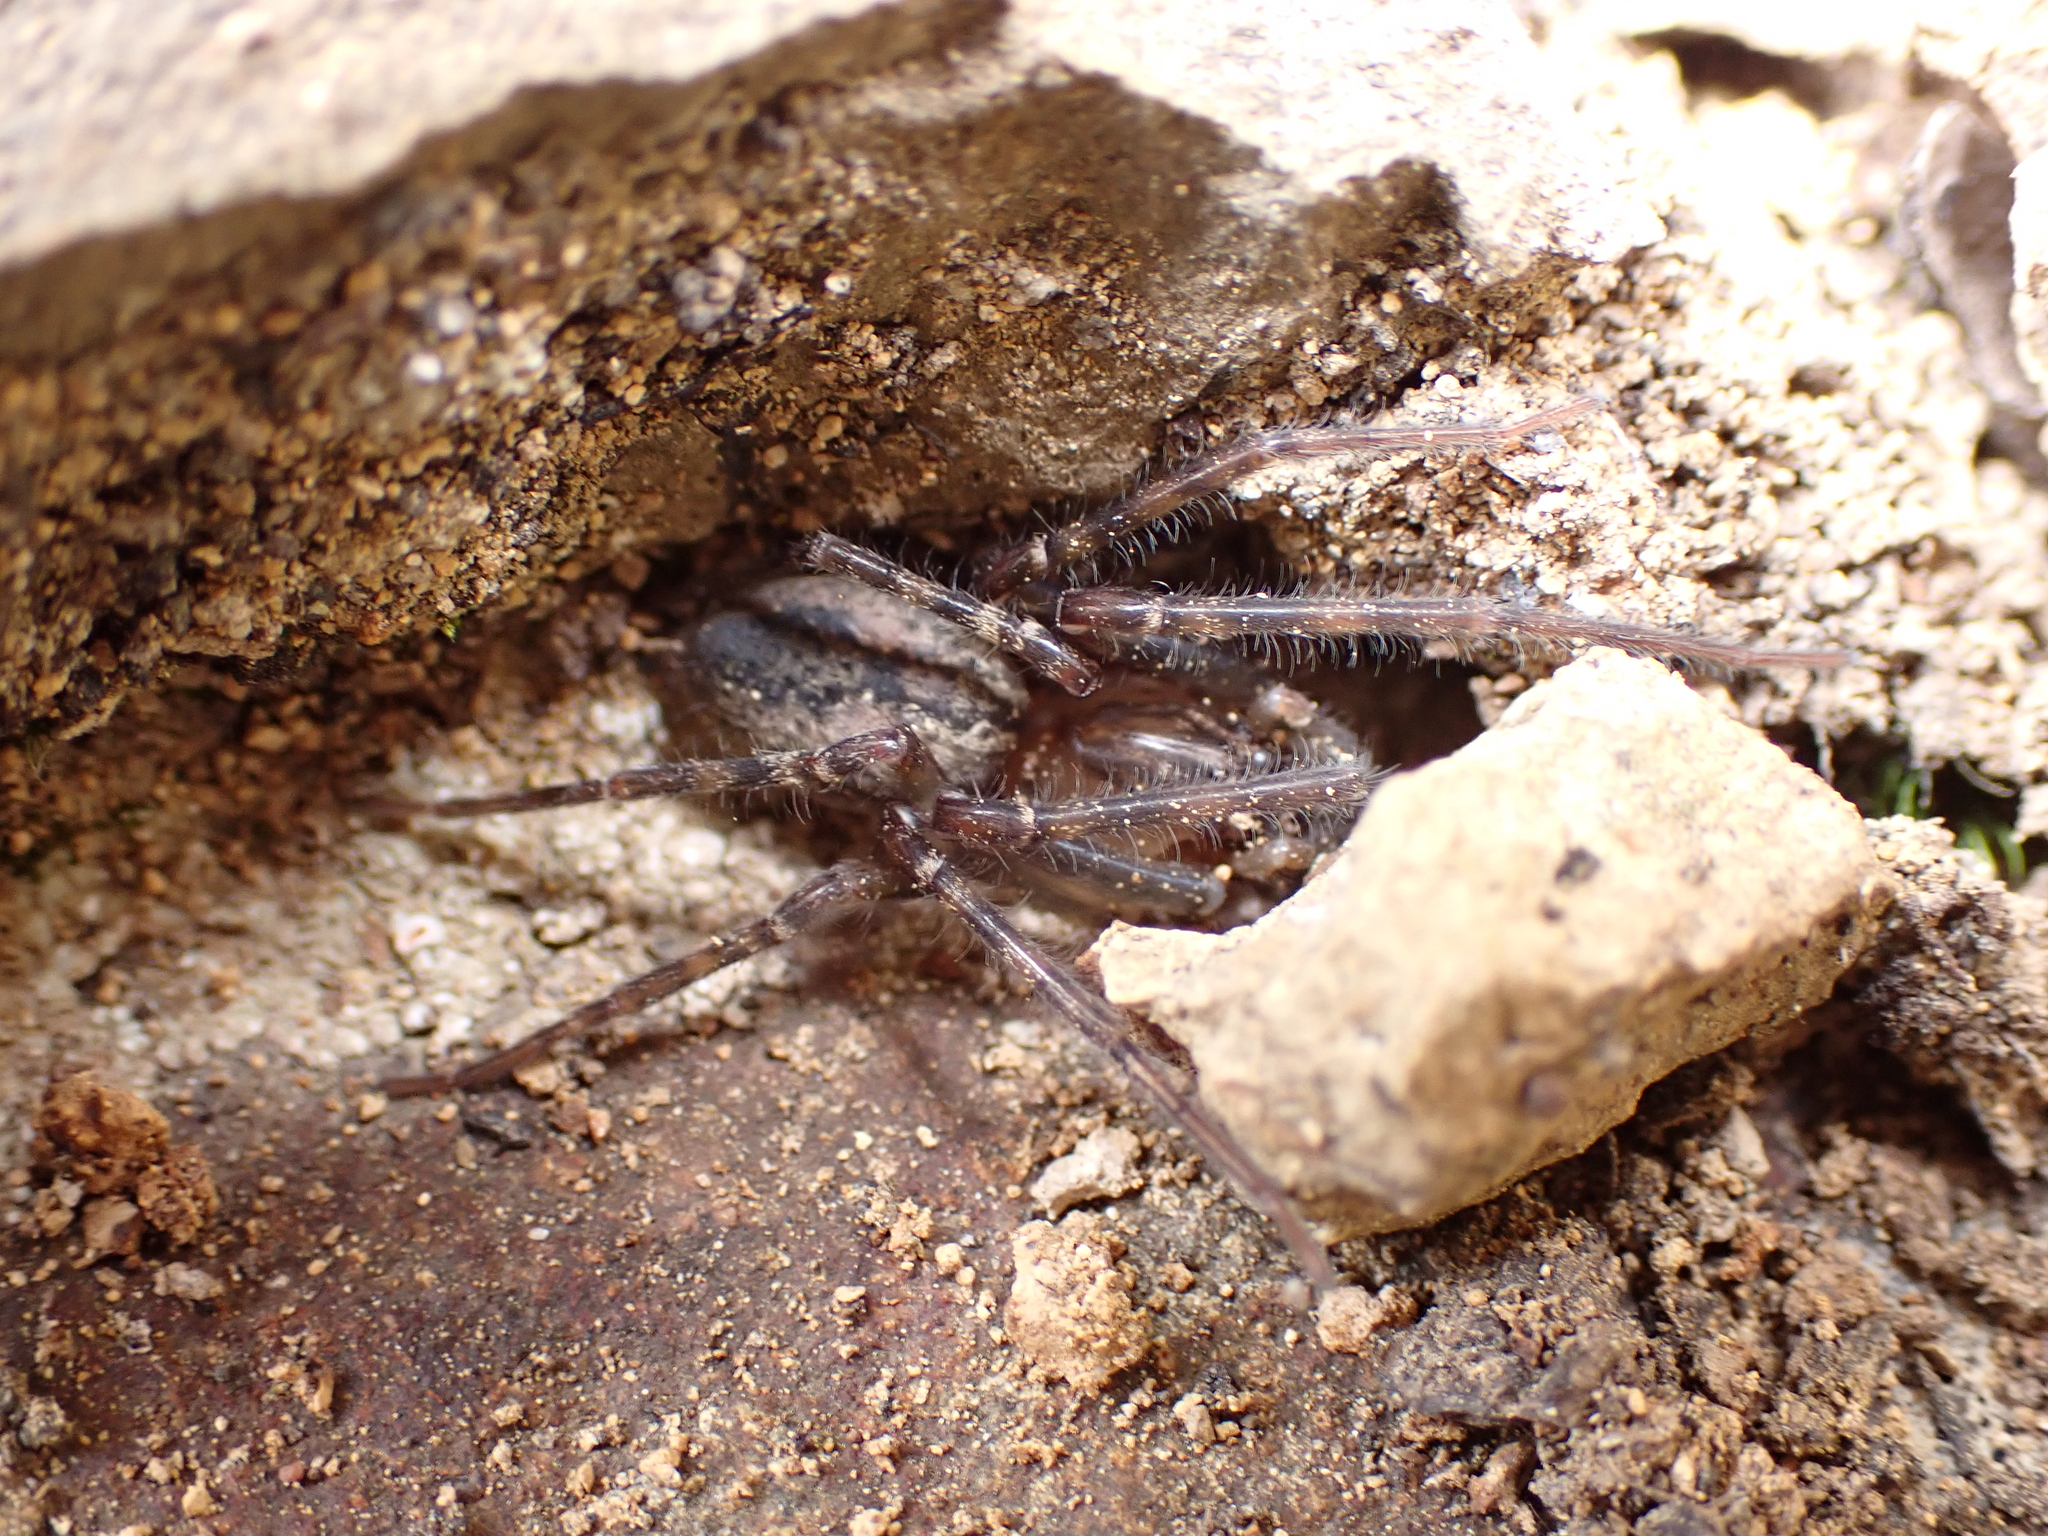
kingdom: Animalia
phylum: Arthropoda
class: Arachnida
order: Araneae
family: Desidae
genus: Nuisiana
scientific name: Nuisiana arboris
